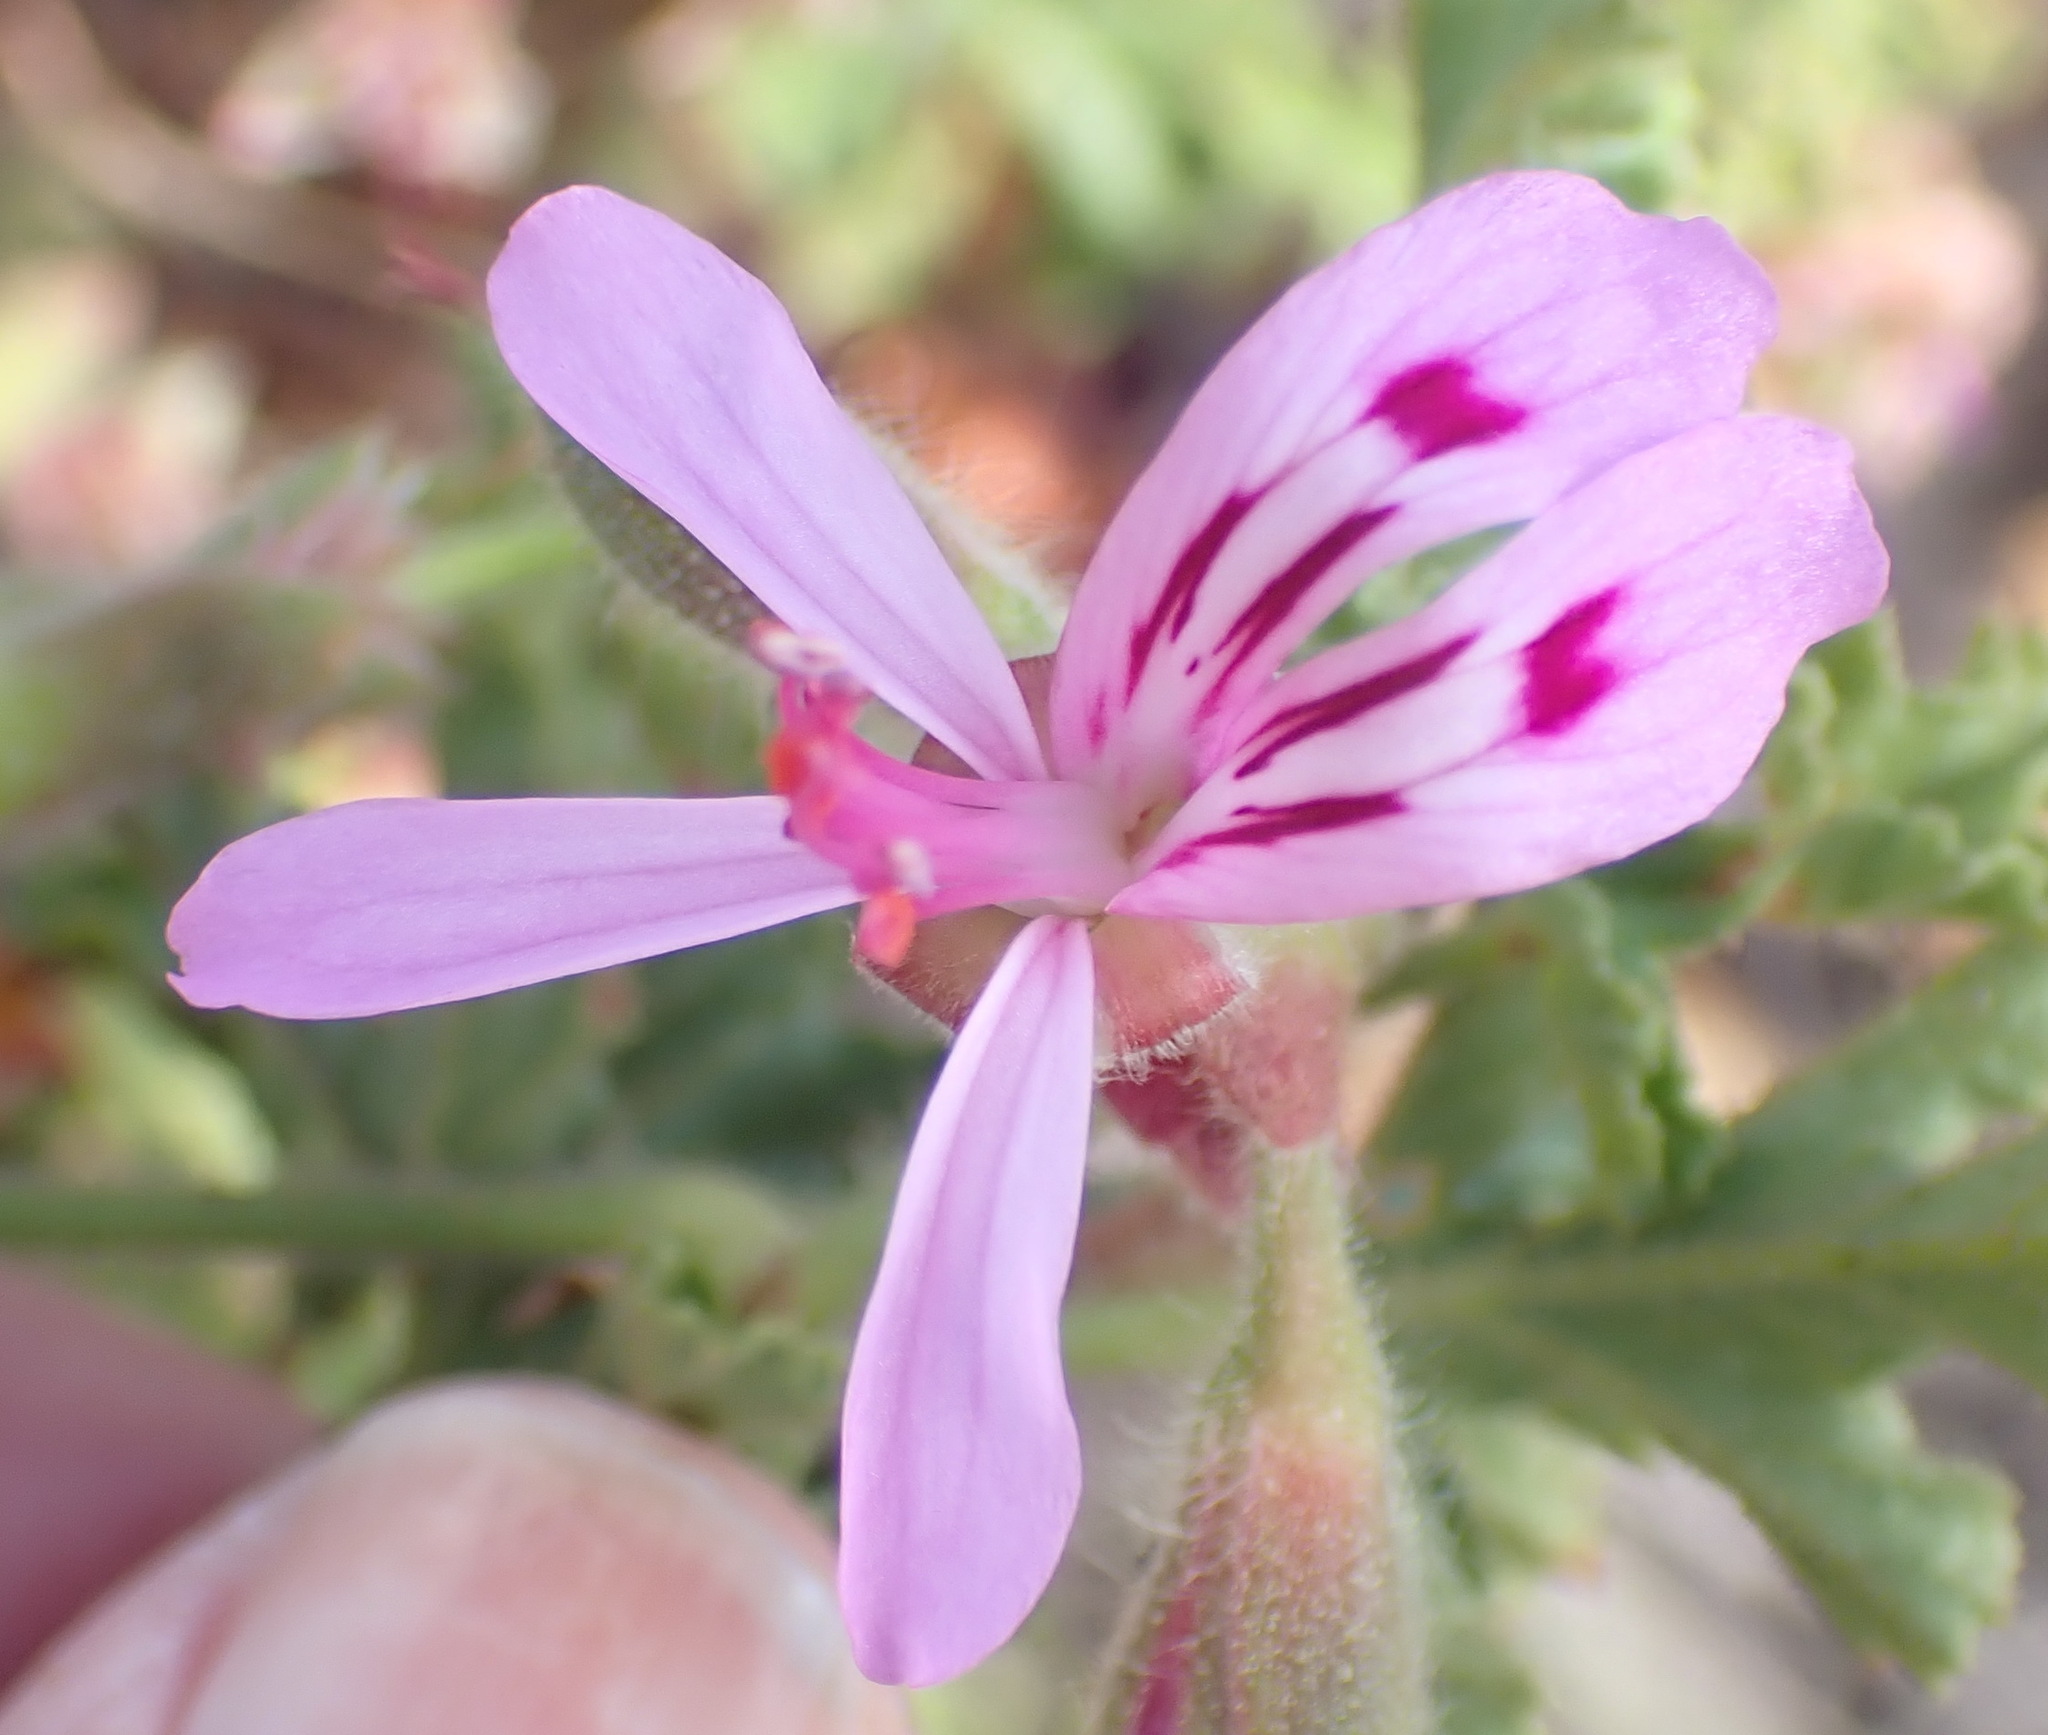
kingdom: Plantae
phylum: Tracheophyta
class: Magnoliopsida
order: Geraniales
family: Geraniaceae
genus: Pelargonium
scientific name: Pelargonium quercifolium
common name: Oakleaf geranium
